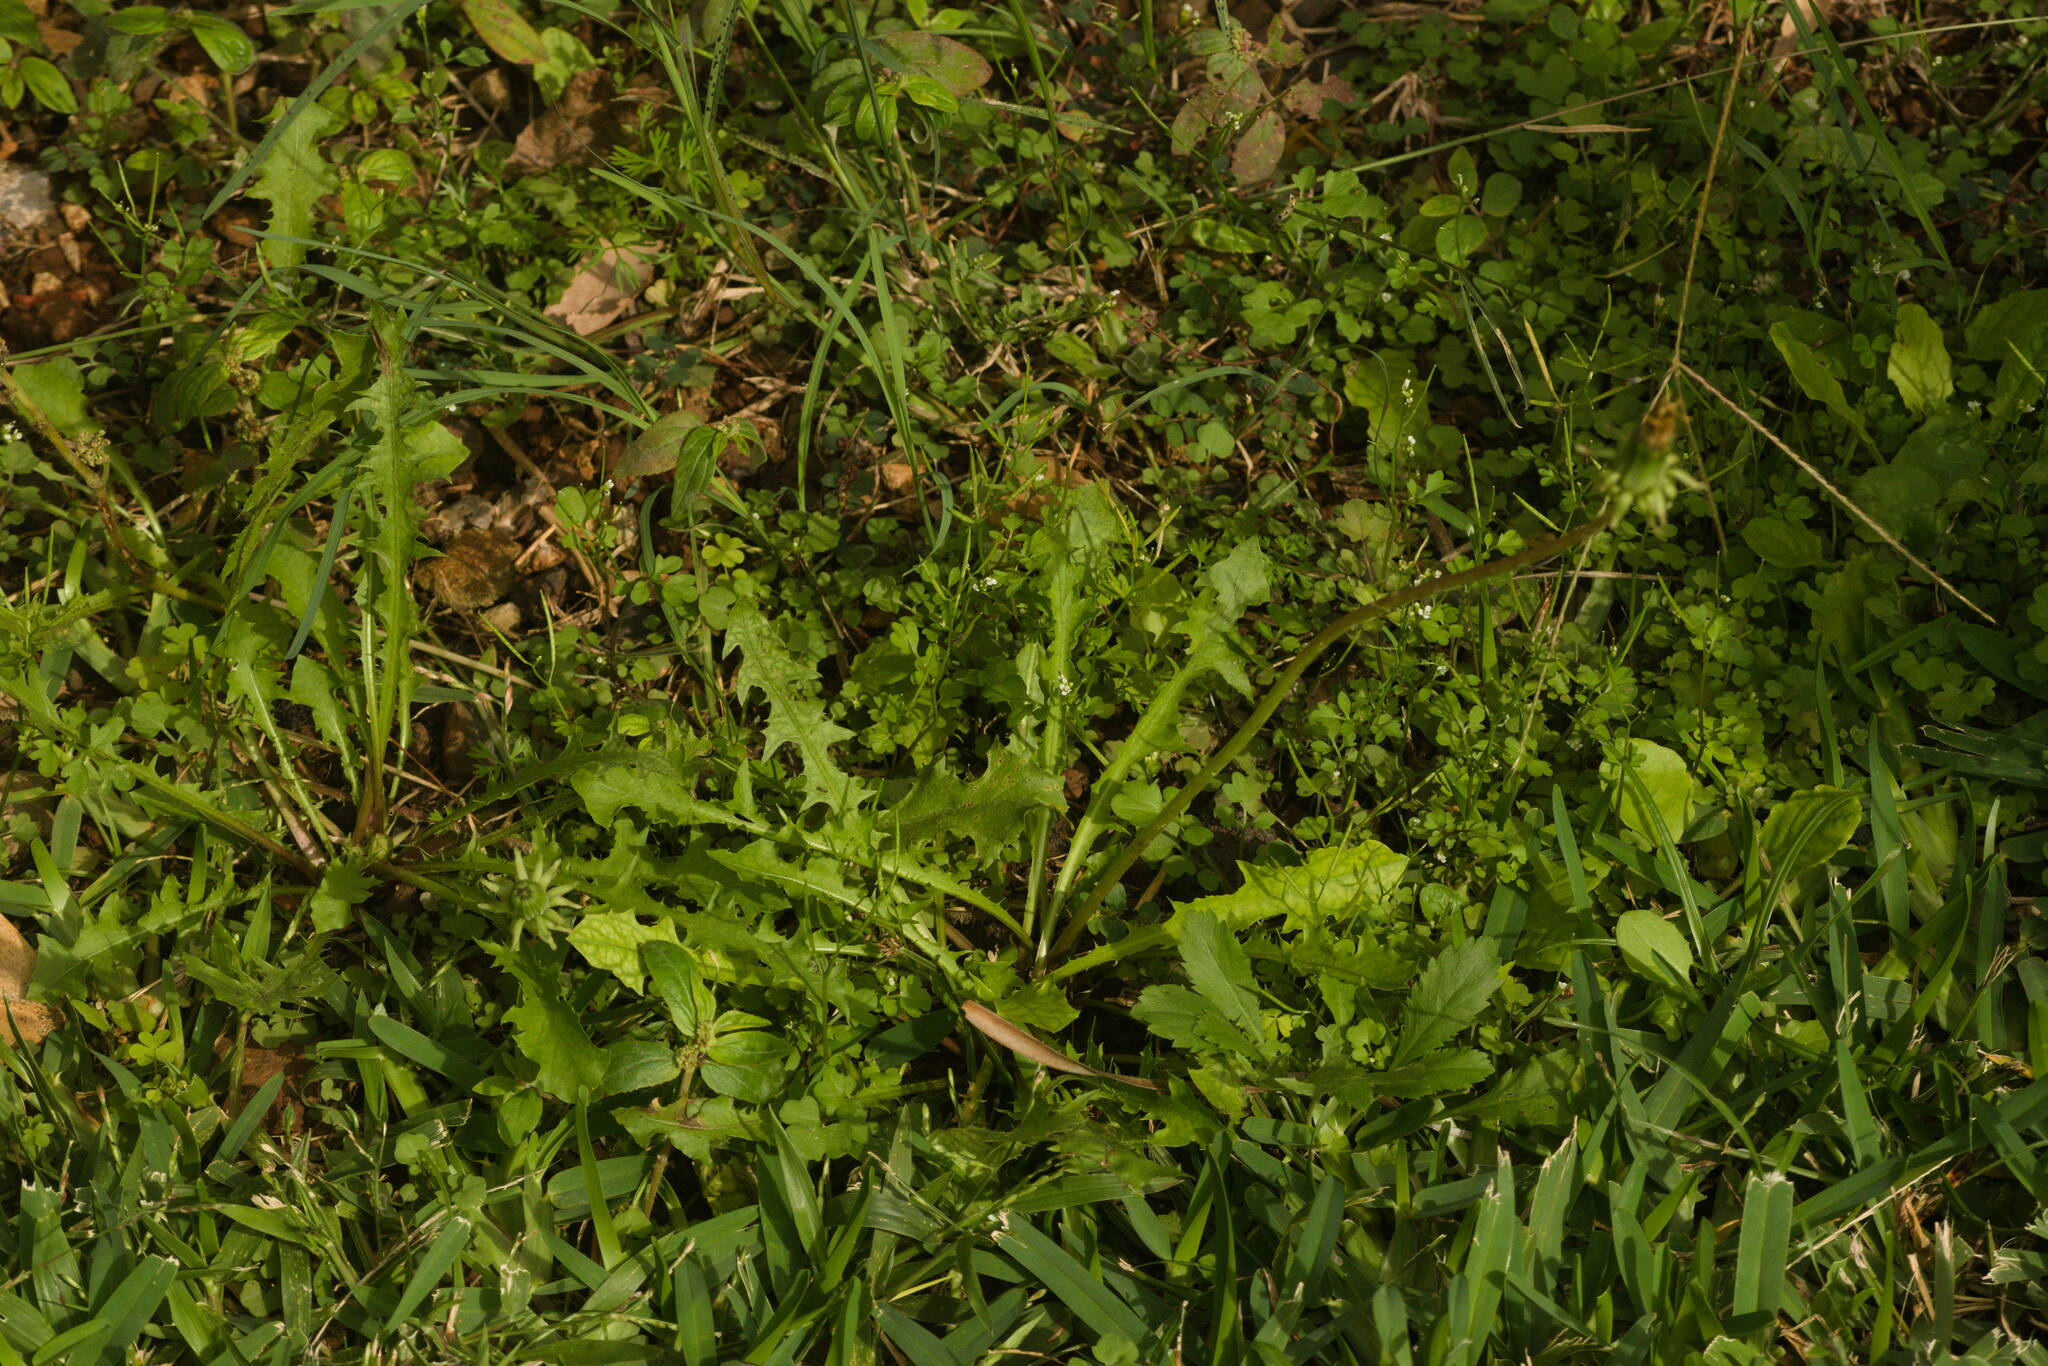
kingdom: Plantae
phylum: Tracheophyta
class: Magnoliopsida
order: Asterales
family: Asteraceae
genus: Taraxacum
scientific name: Taraxacum officinale
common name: Common dandelion
